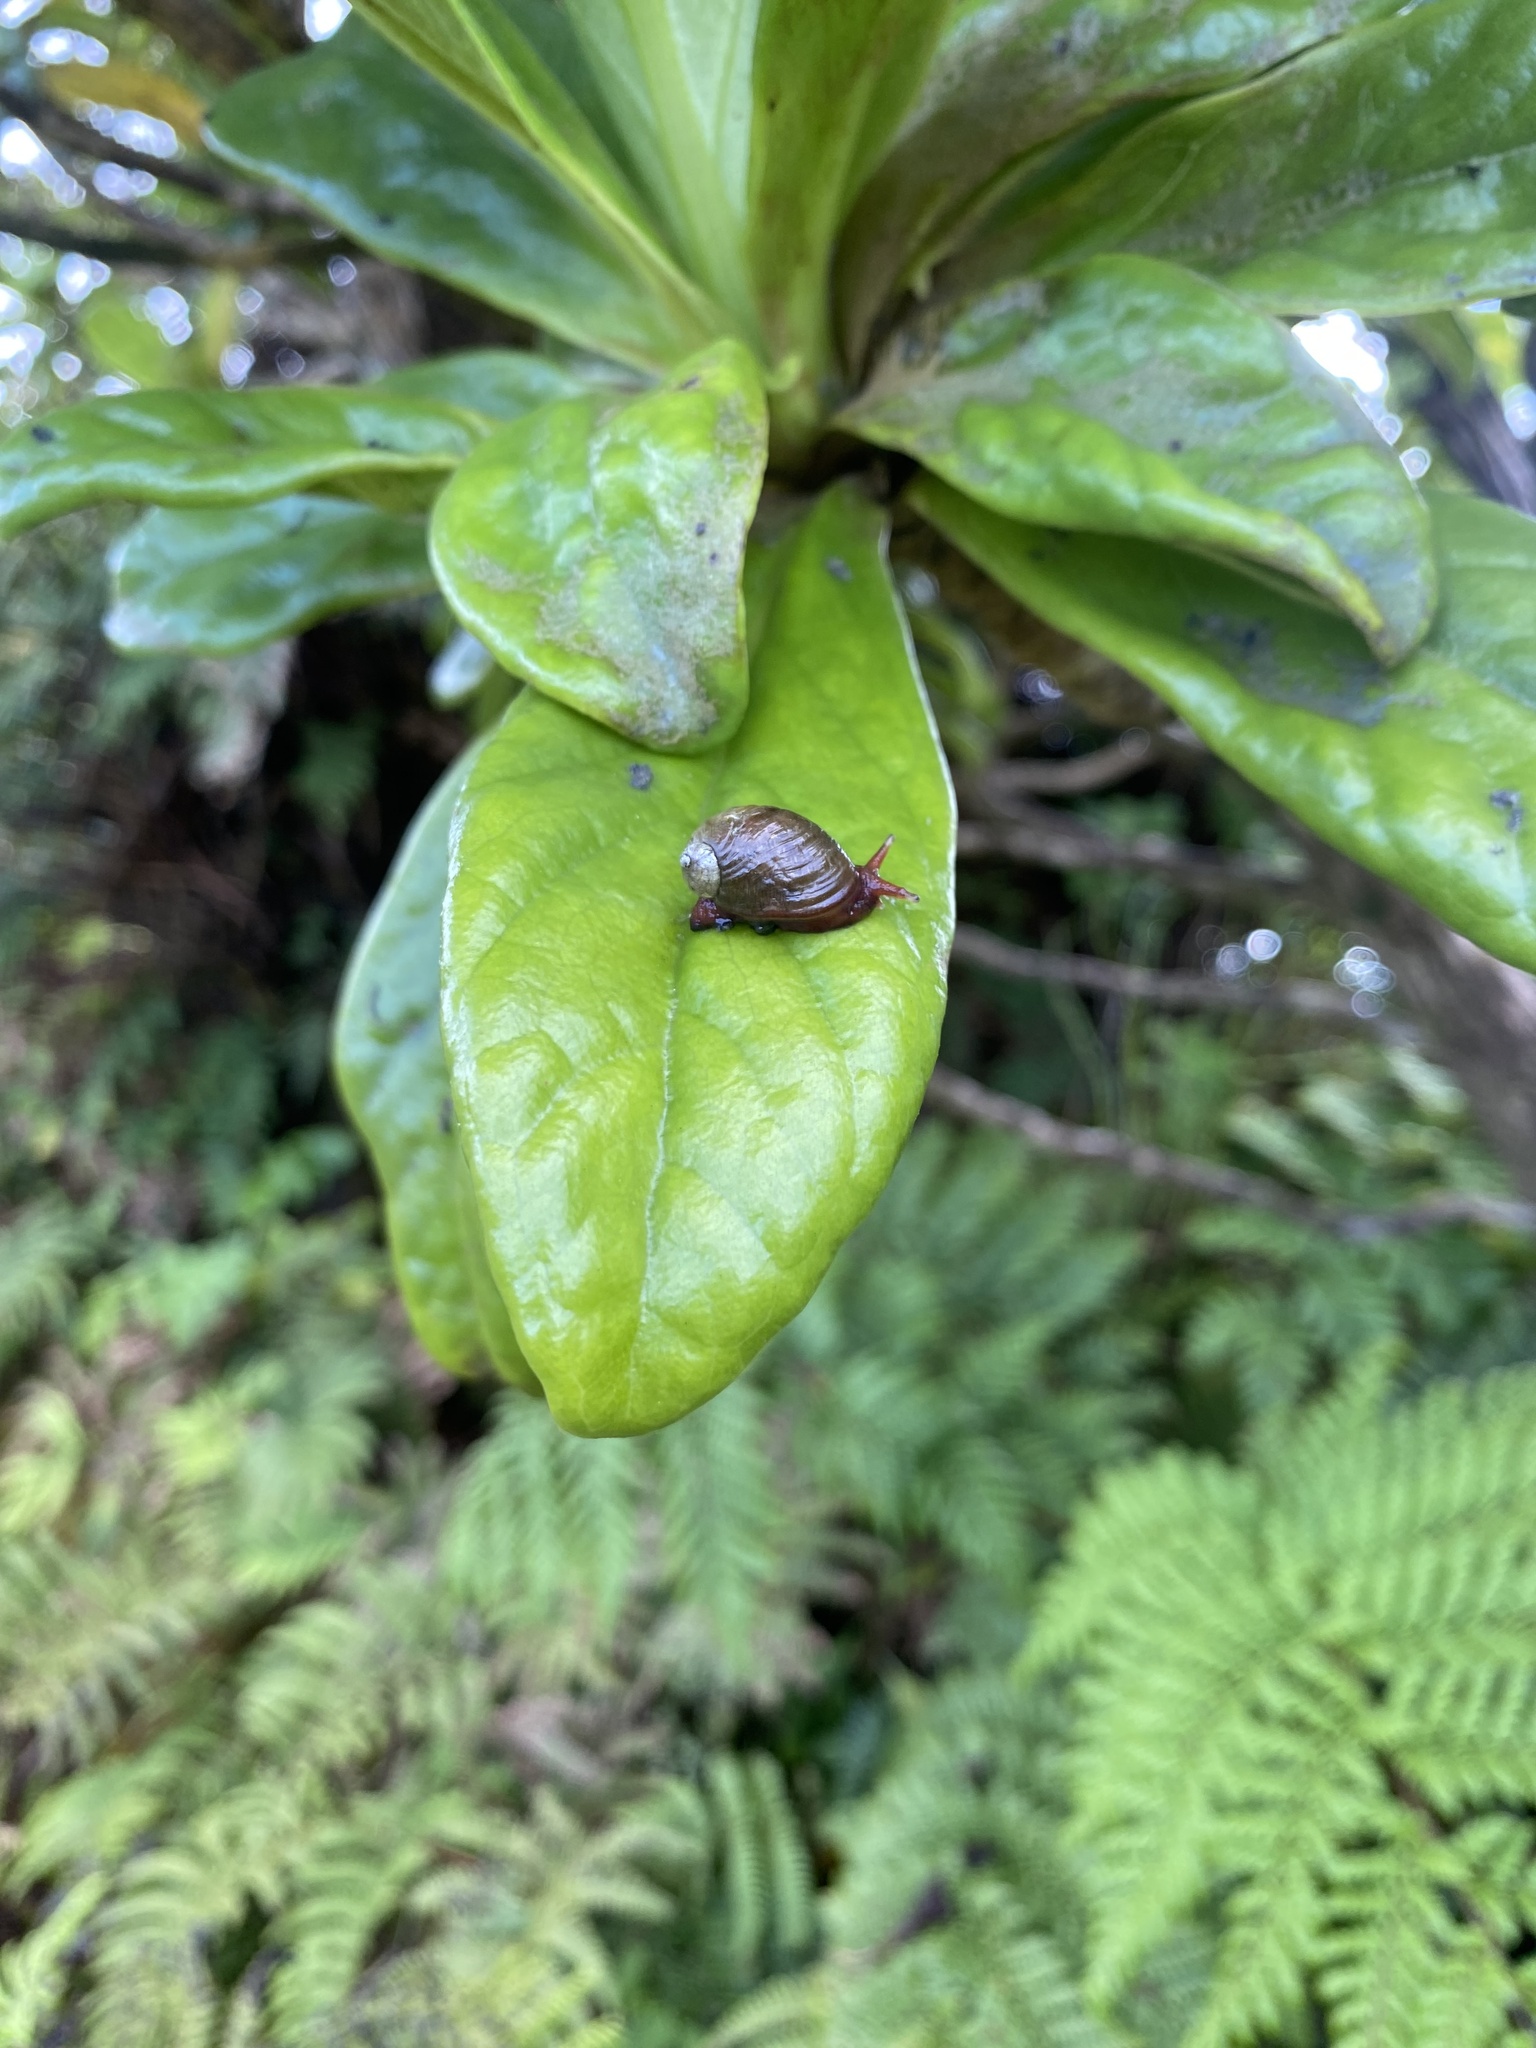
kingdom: Animalia
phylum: Mollusca
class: Gastropoda
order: Stylommatophora
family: Succineidae
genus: Helisiga
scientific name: Helisiga sanctaehelenae
